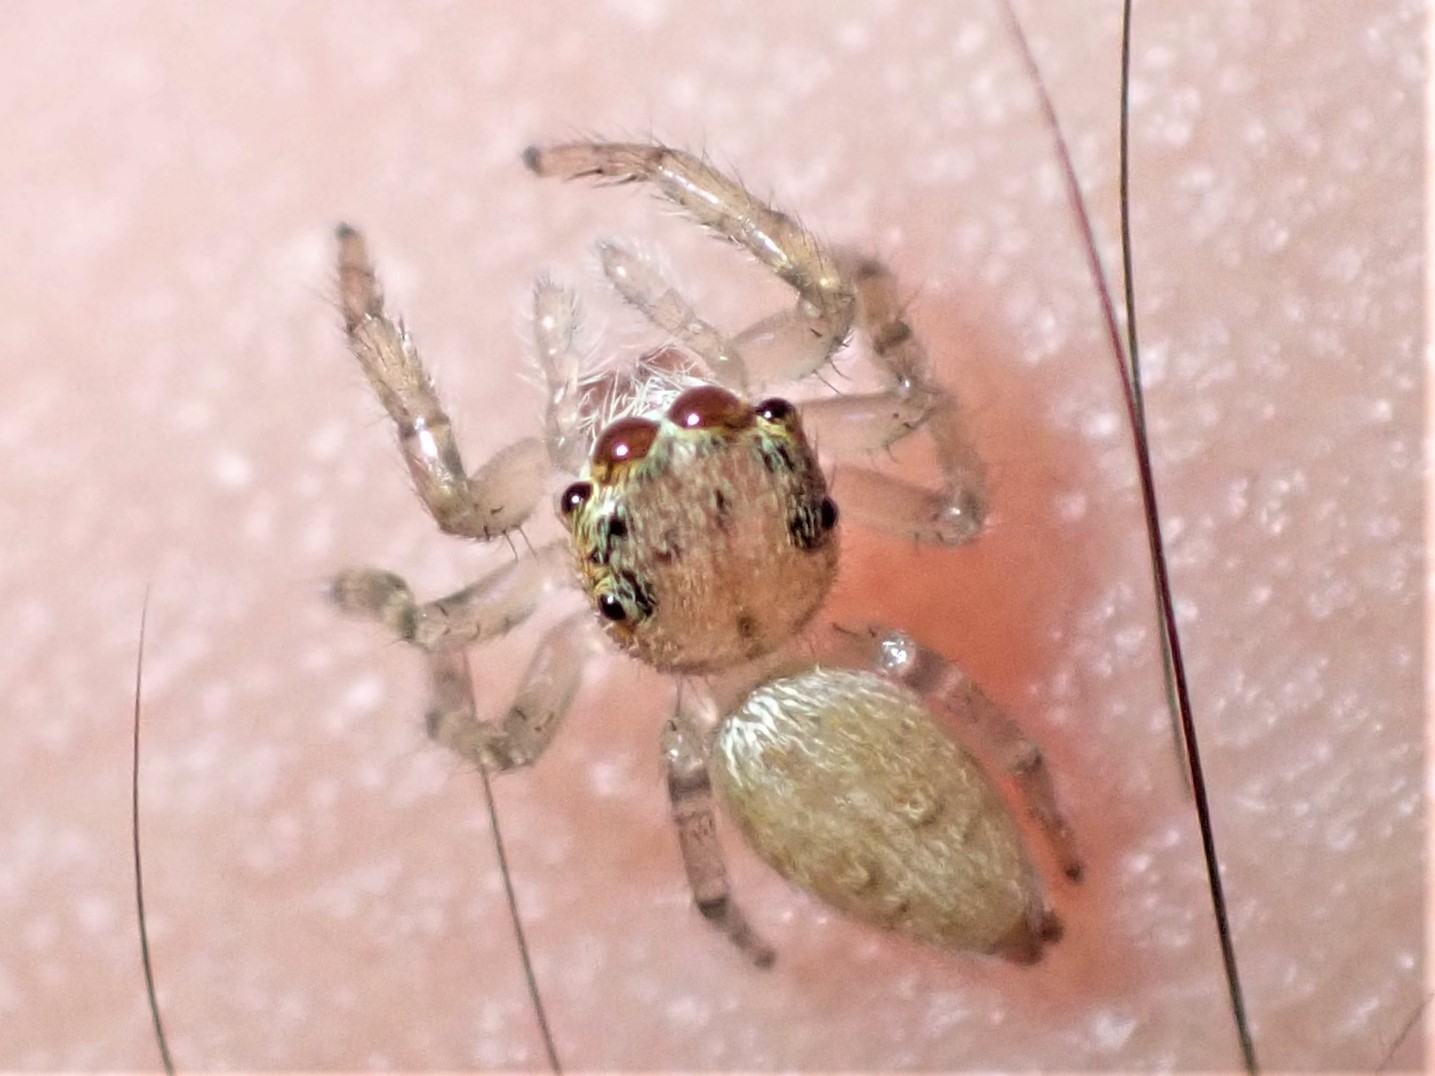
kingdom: Animalia
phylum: Arthropoda
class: Arachnida
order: Araneae
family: Salticidae
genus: Opisthoncus
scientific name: Opisthoncus polyphemus
